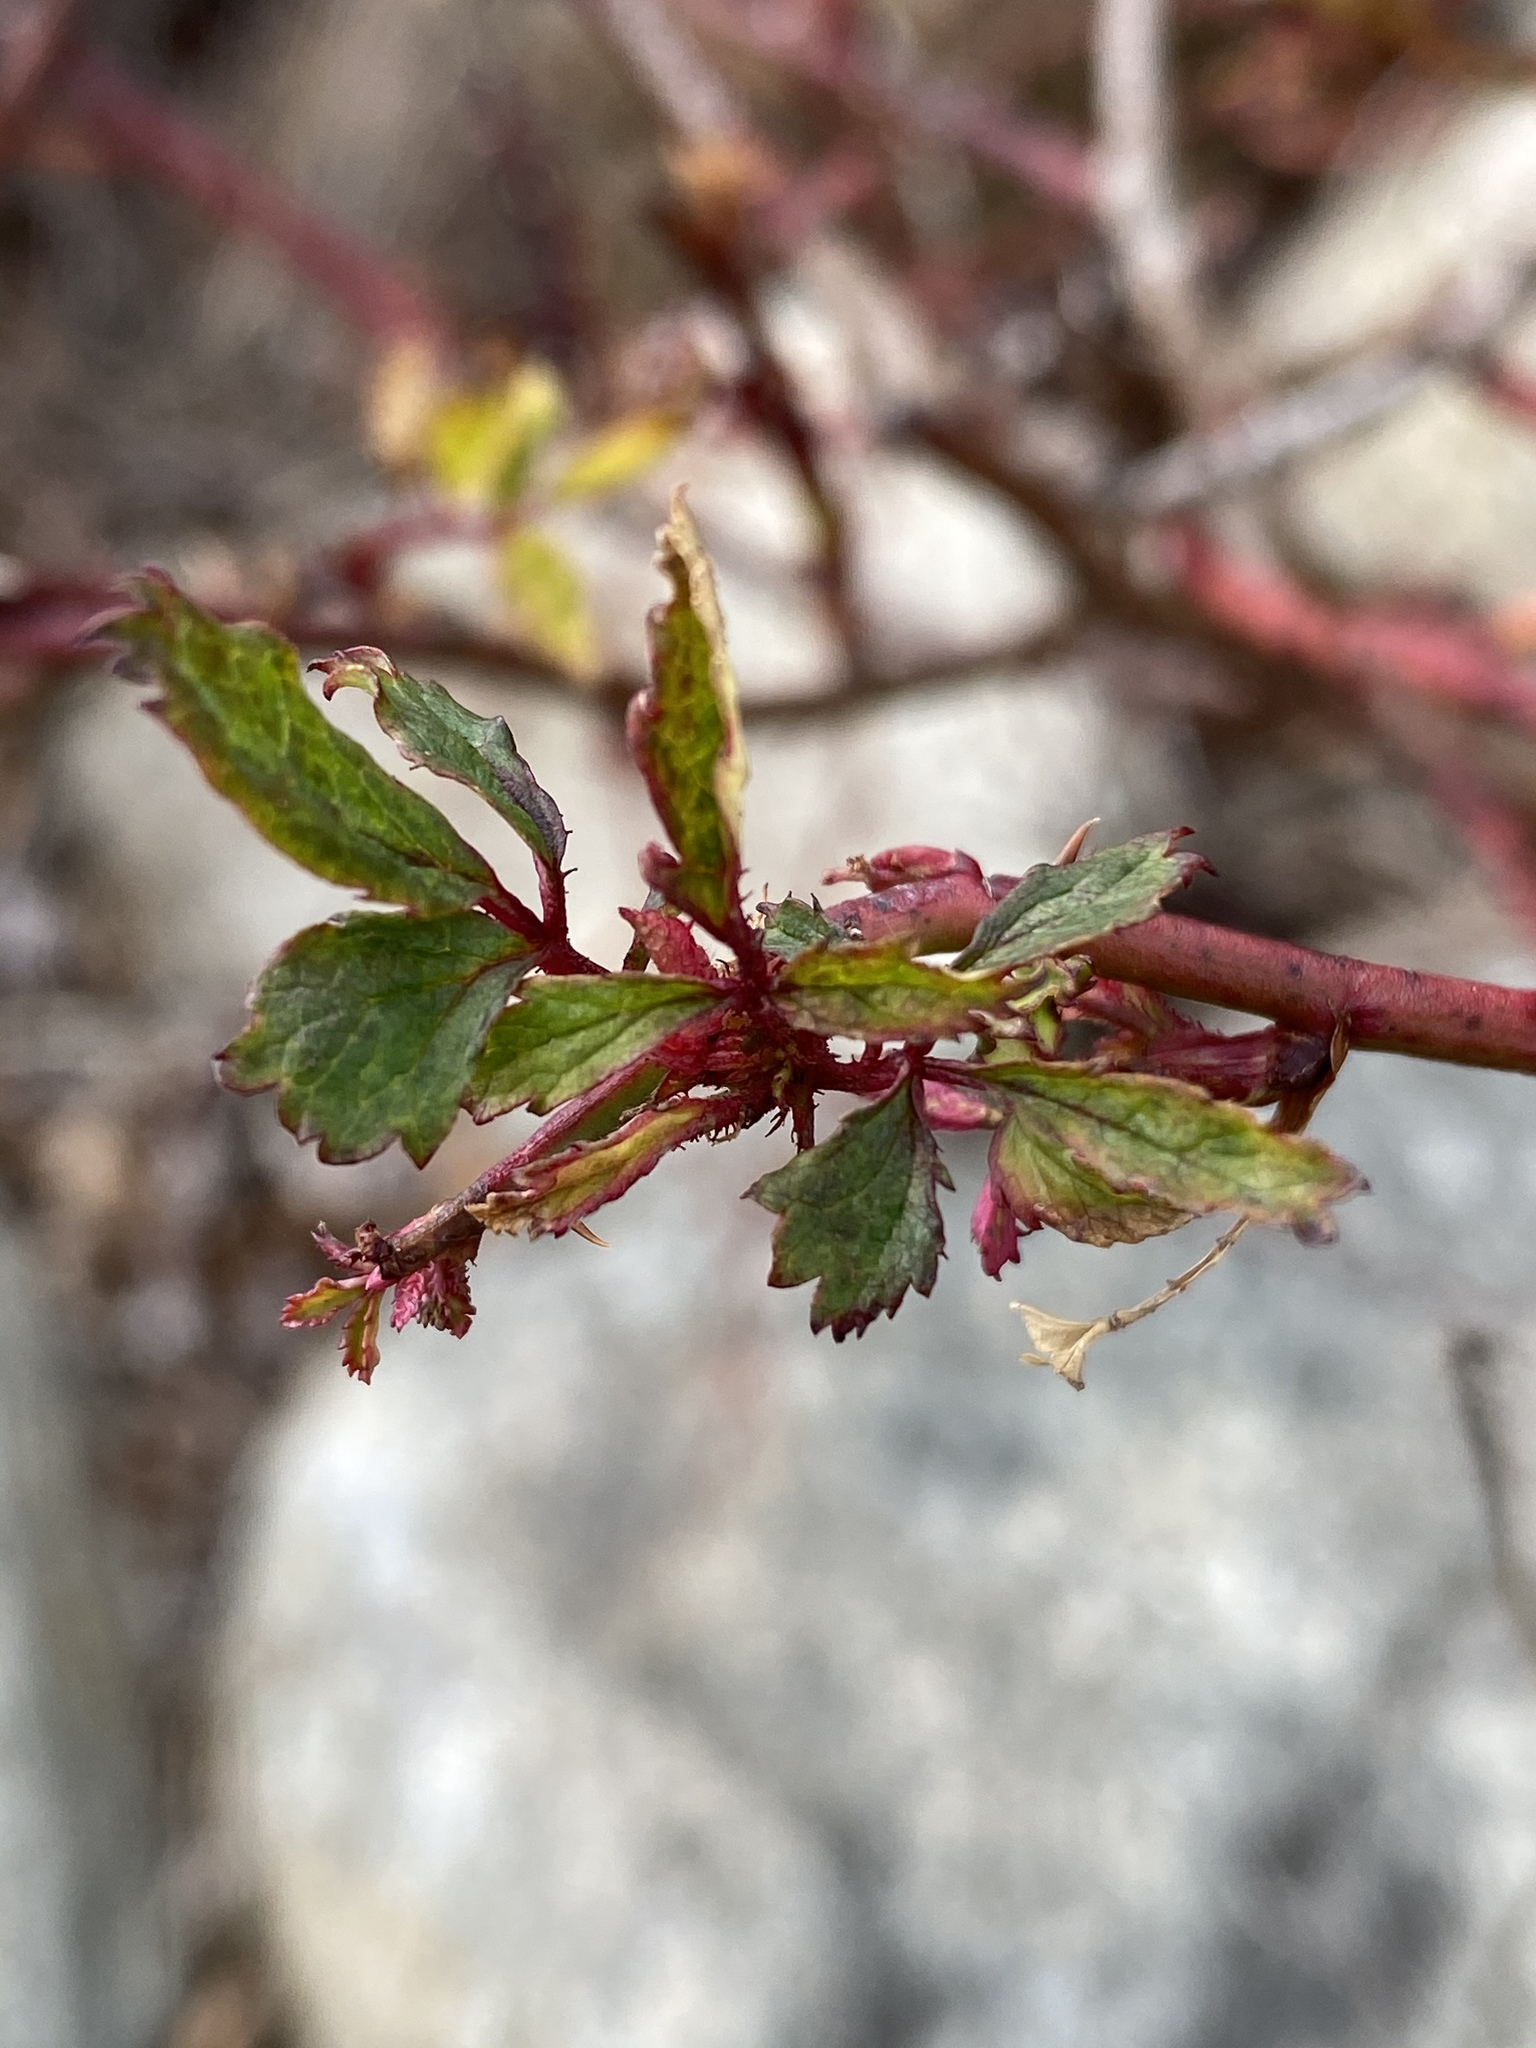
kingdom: Viruses
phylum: Negarnaviricota
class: Ellioviricetes
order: Bunyavirales
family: Fimoviridae
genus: Emaravirus
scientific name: Emaravirus rosae
